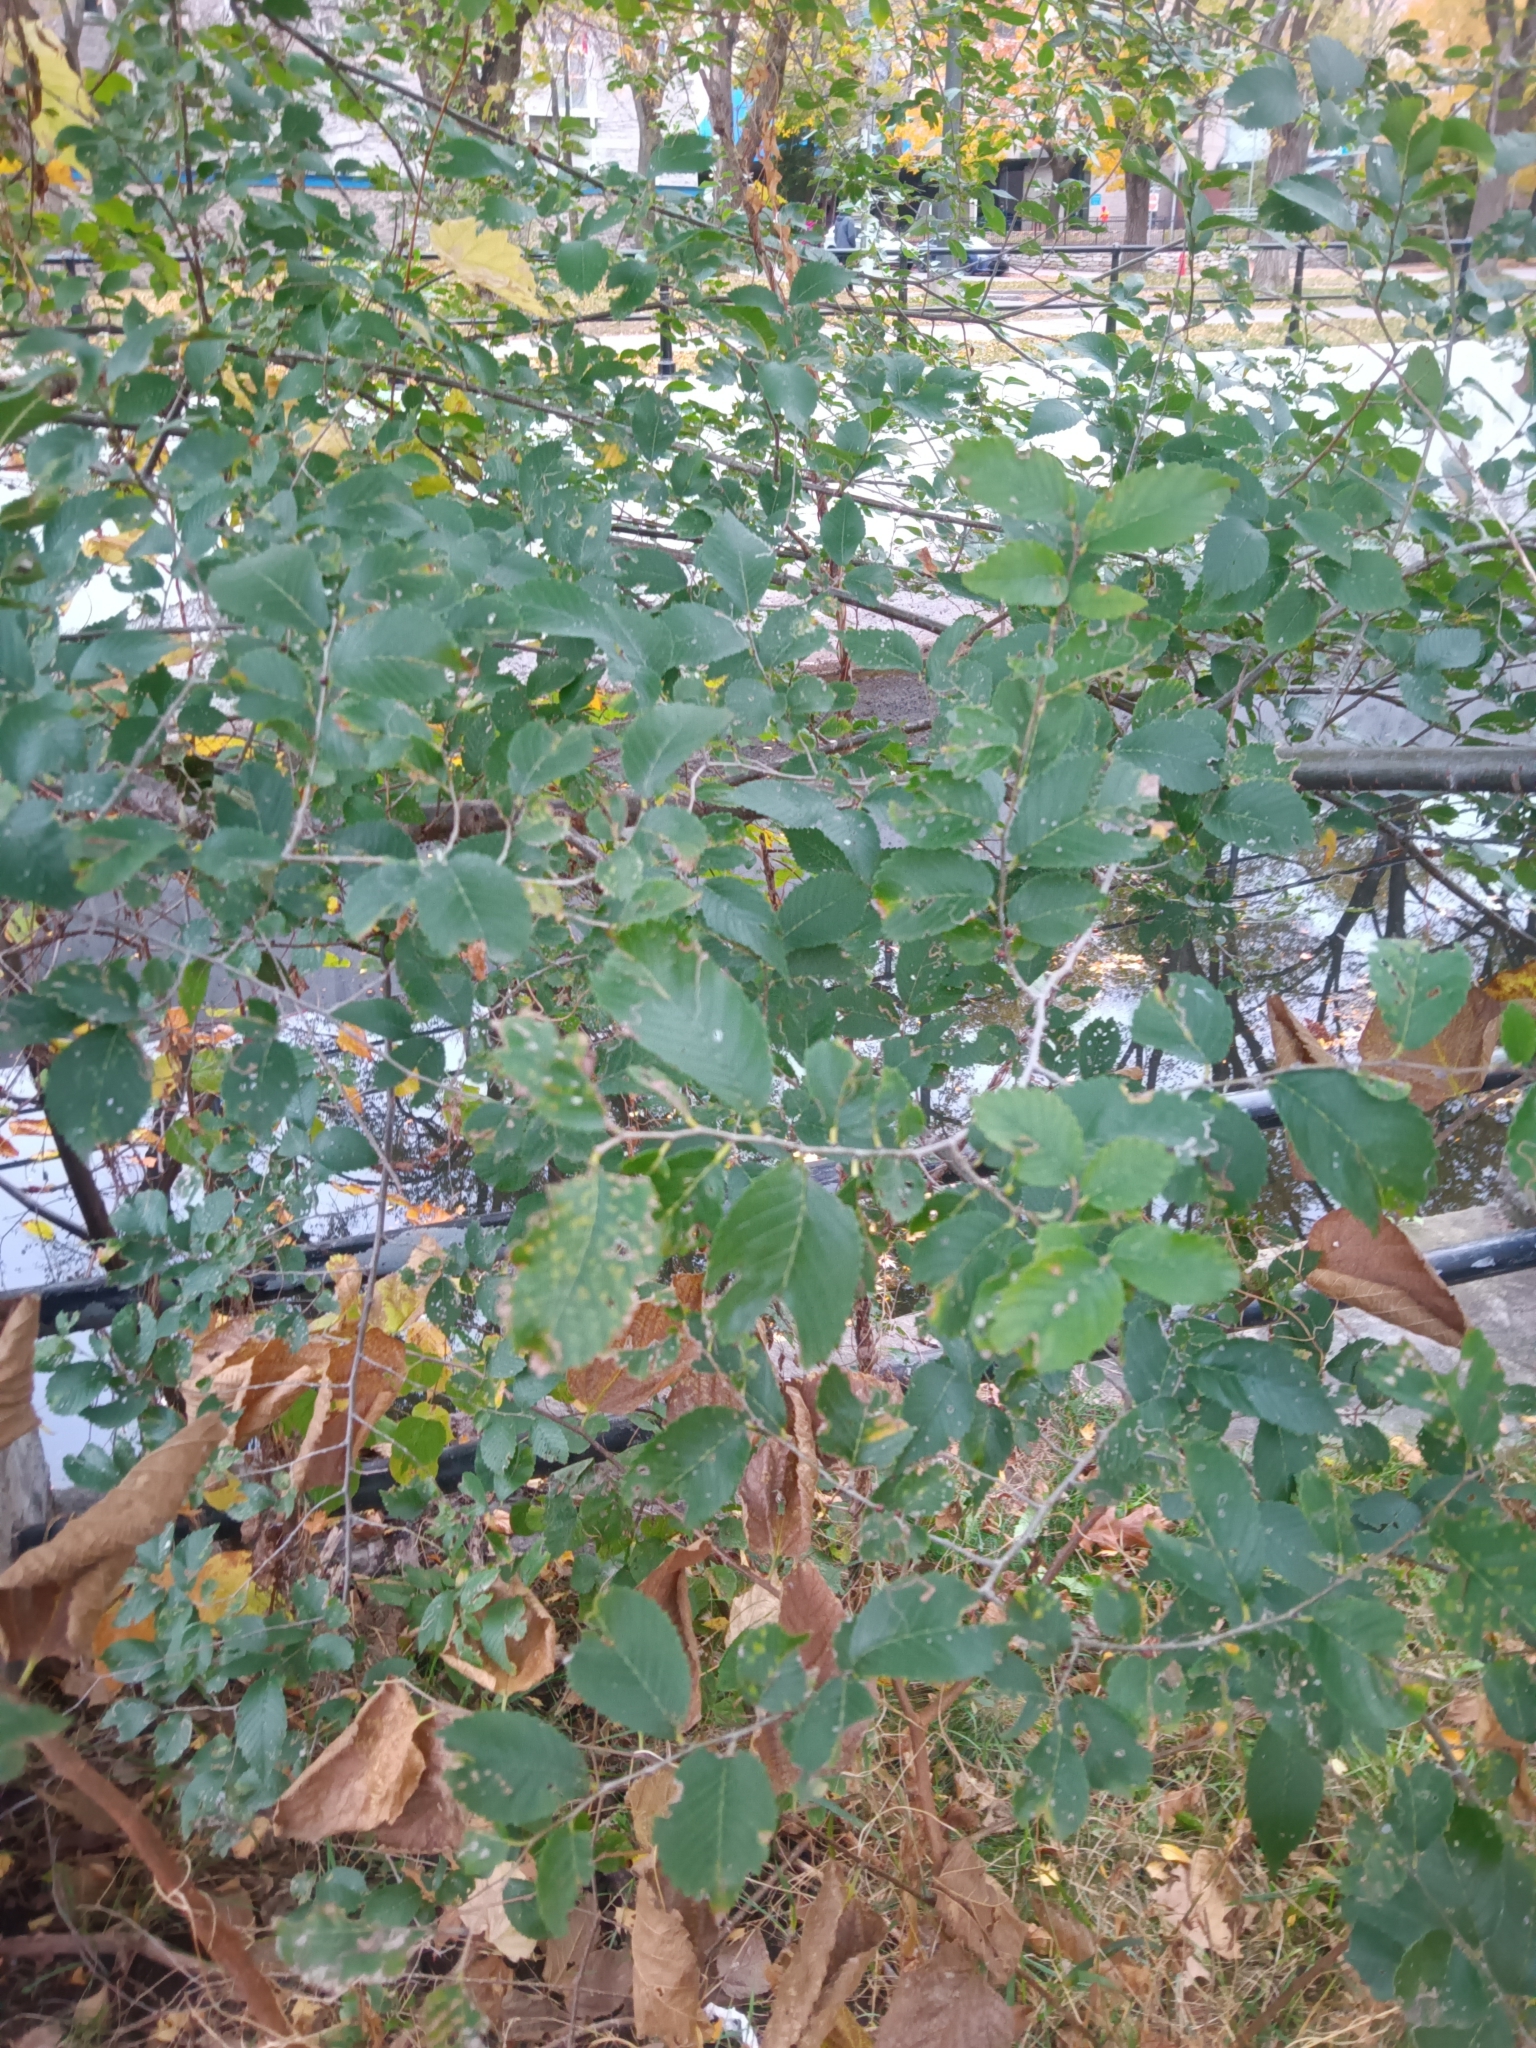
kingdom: Plantae
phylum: Tracheophyta
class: Magnoliopsida
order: Rosales
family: Ulmaceae
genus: Ulmus
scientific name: Ulmus pumila
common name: Siberian elm
